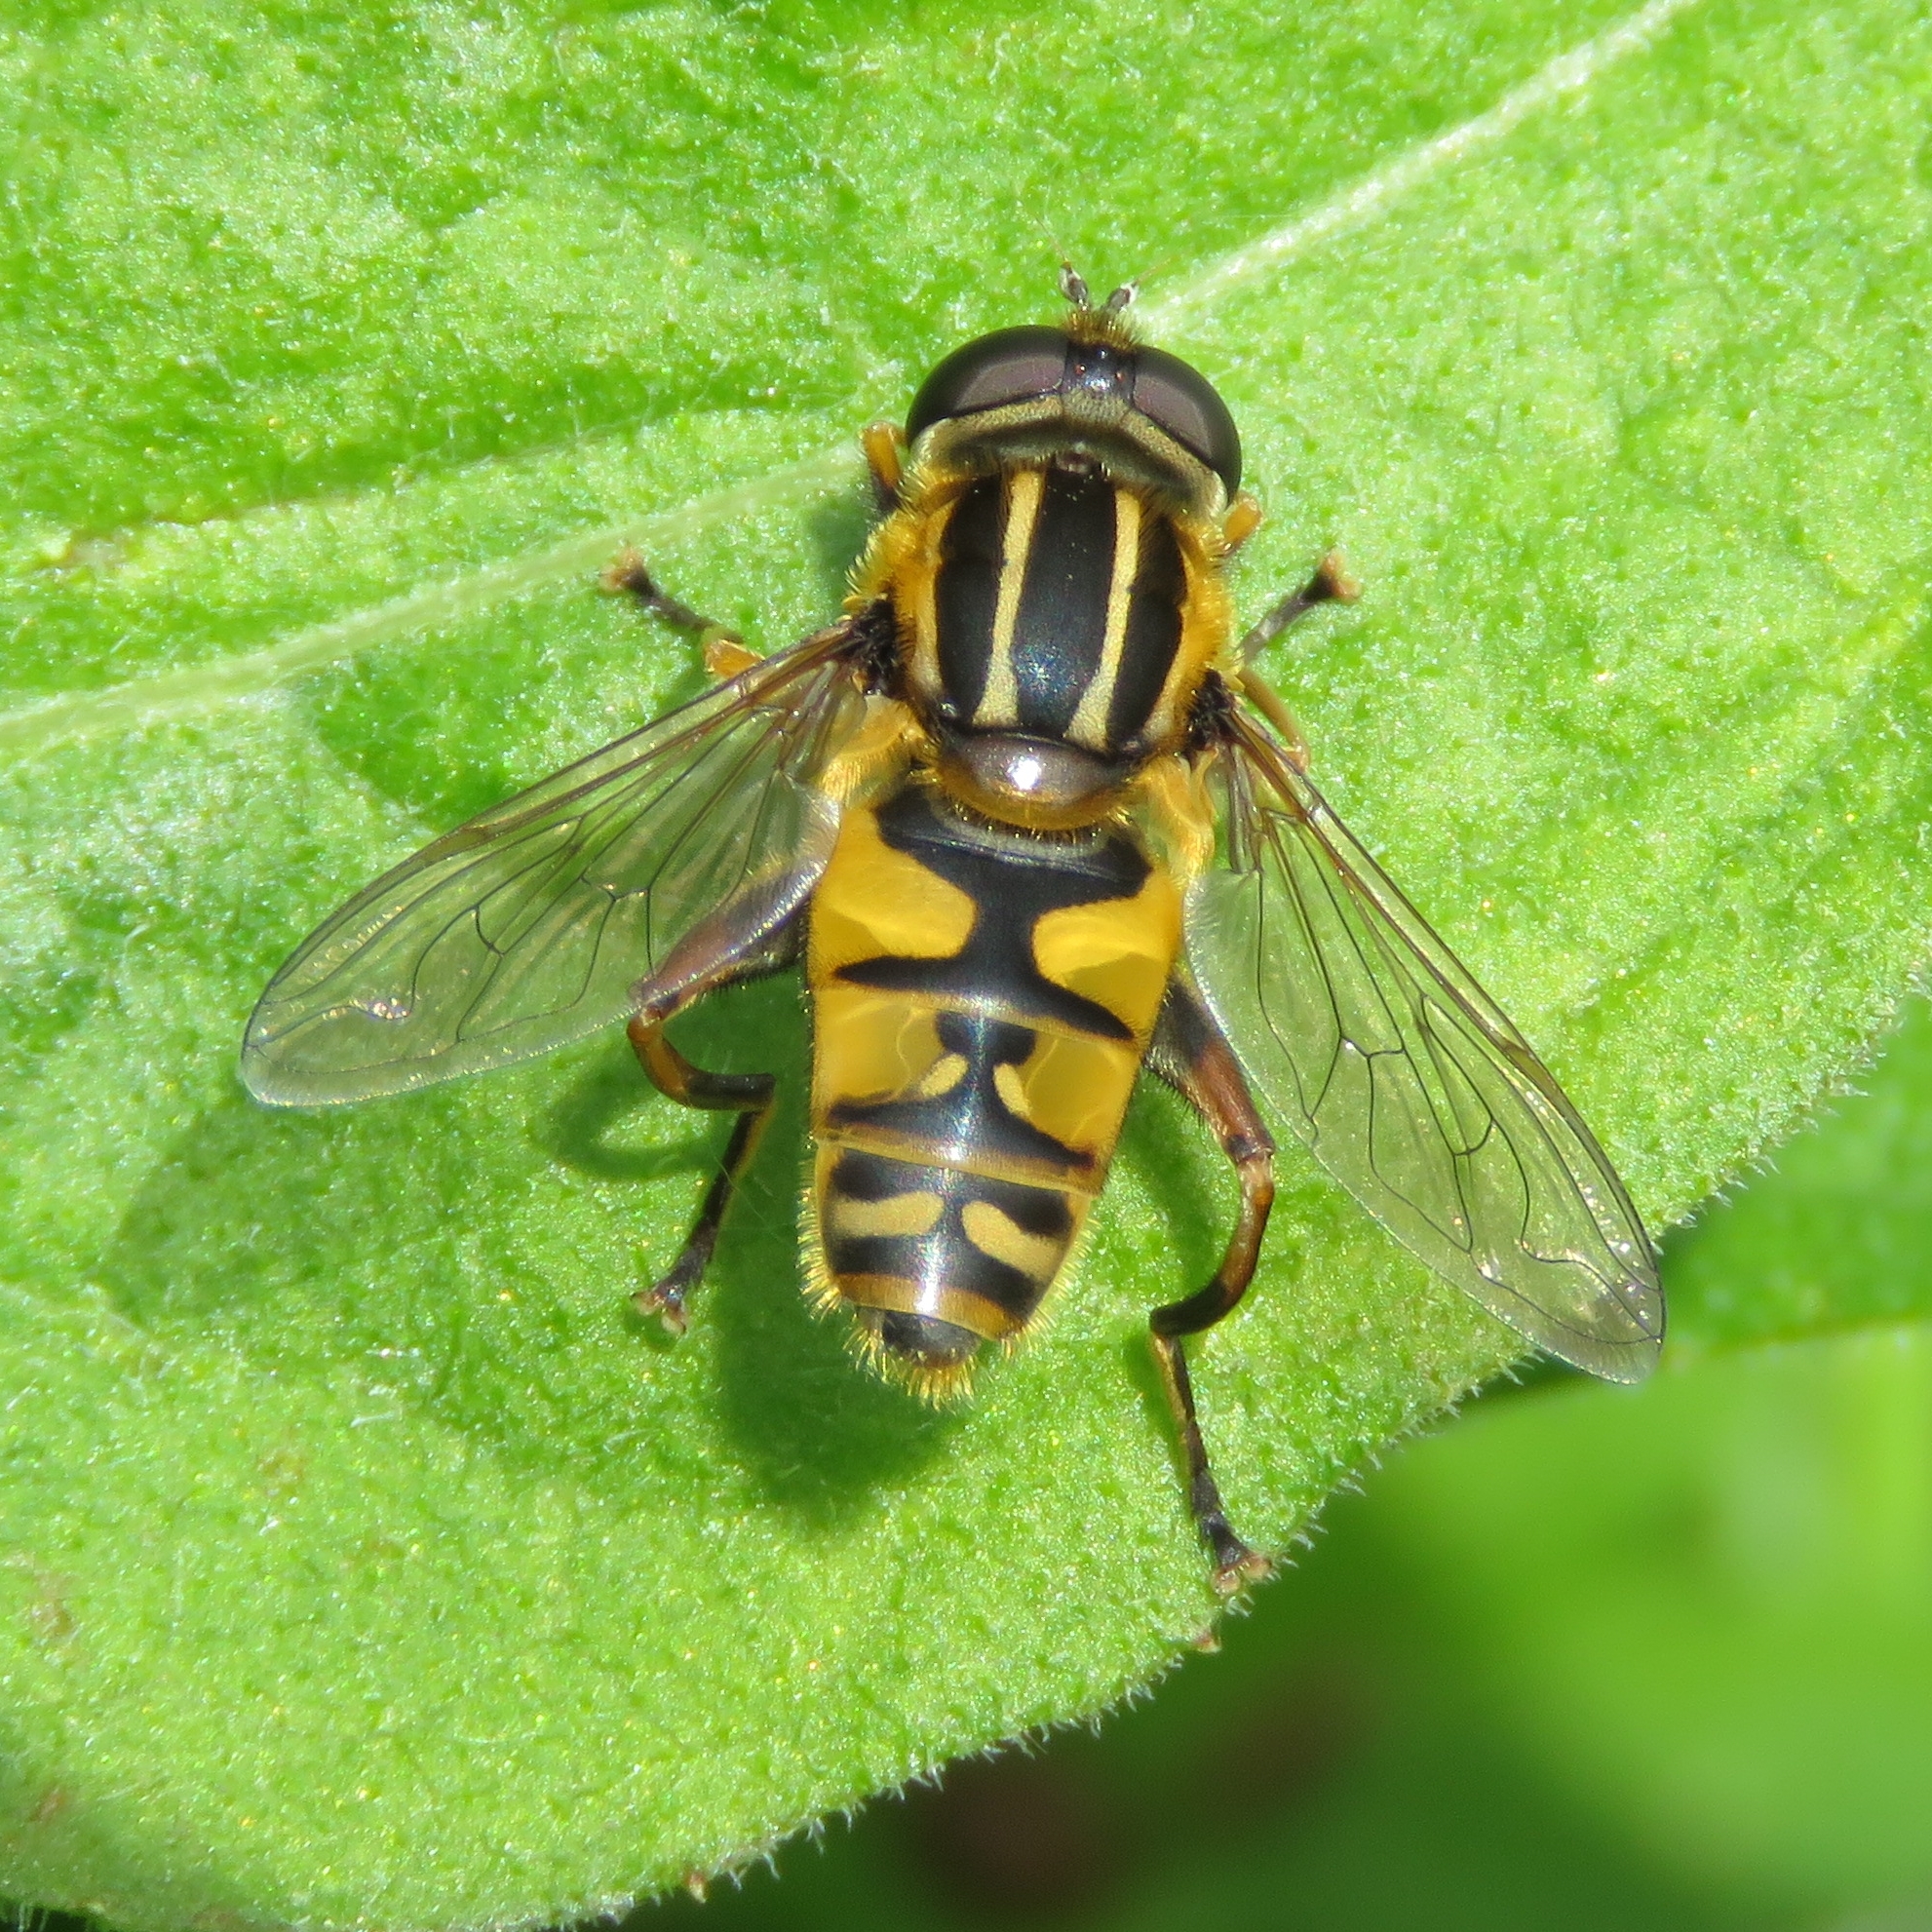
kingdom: Animalia
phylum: Arthropoda
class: Insecta
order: Diptera
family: Syrphidae
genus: Helophilus
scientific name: Helophilus pendulus
